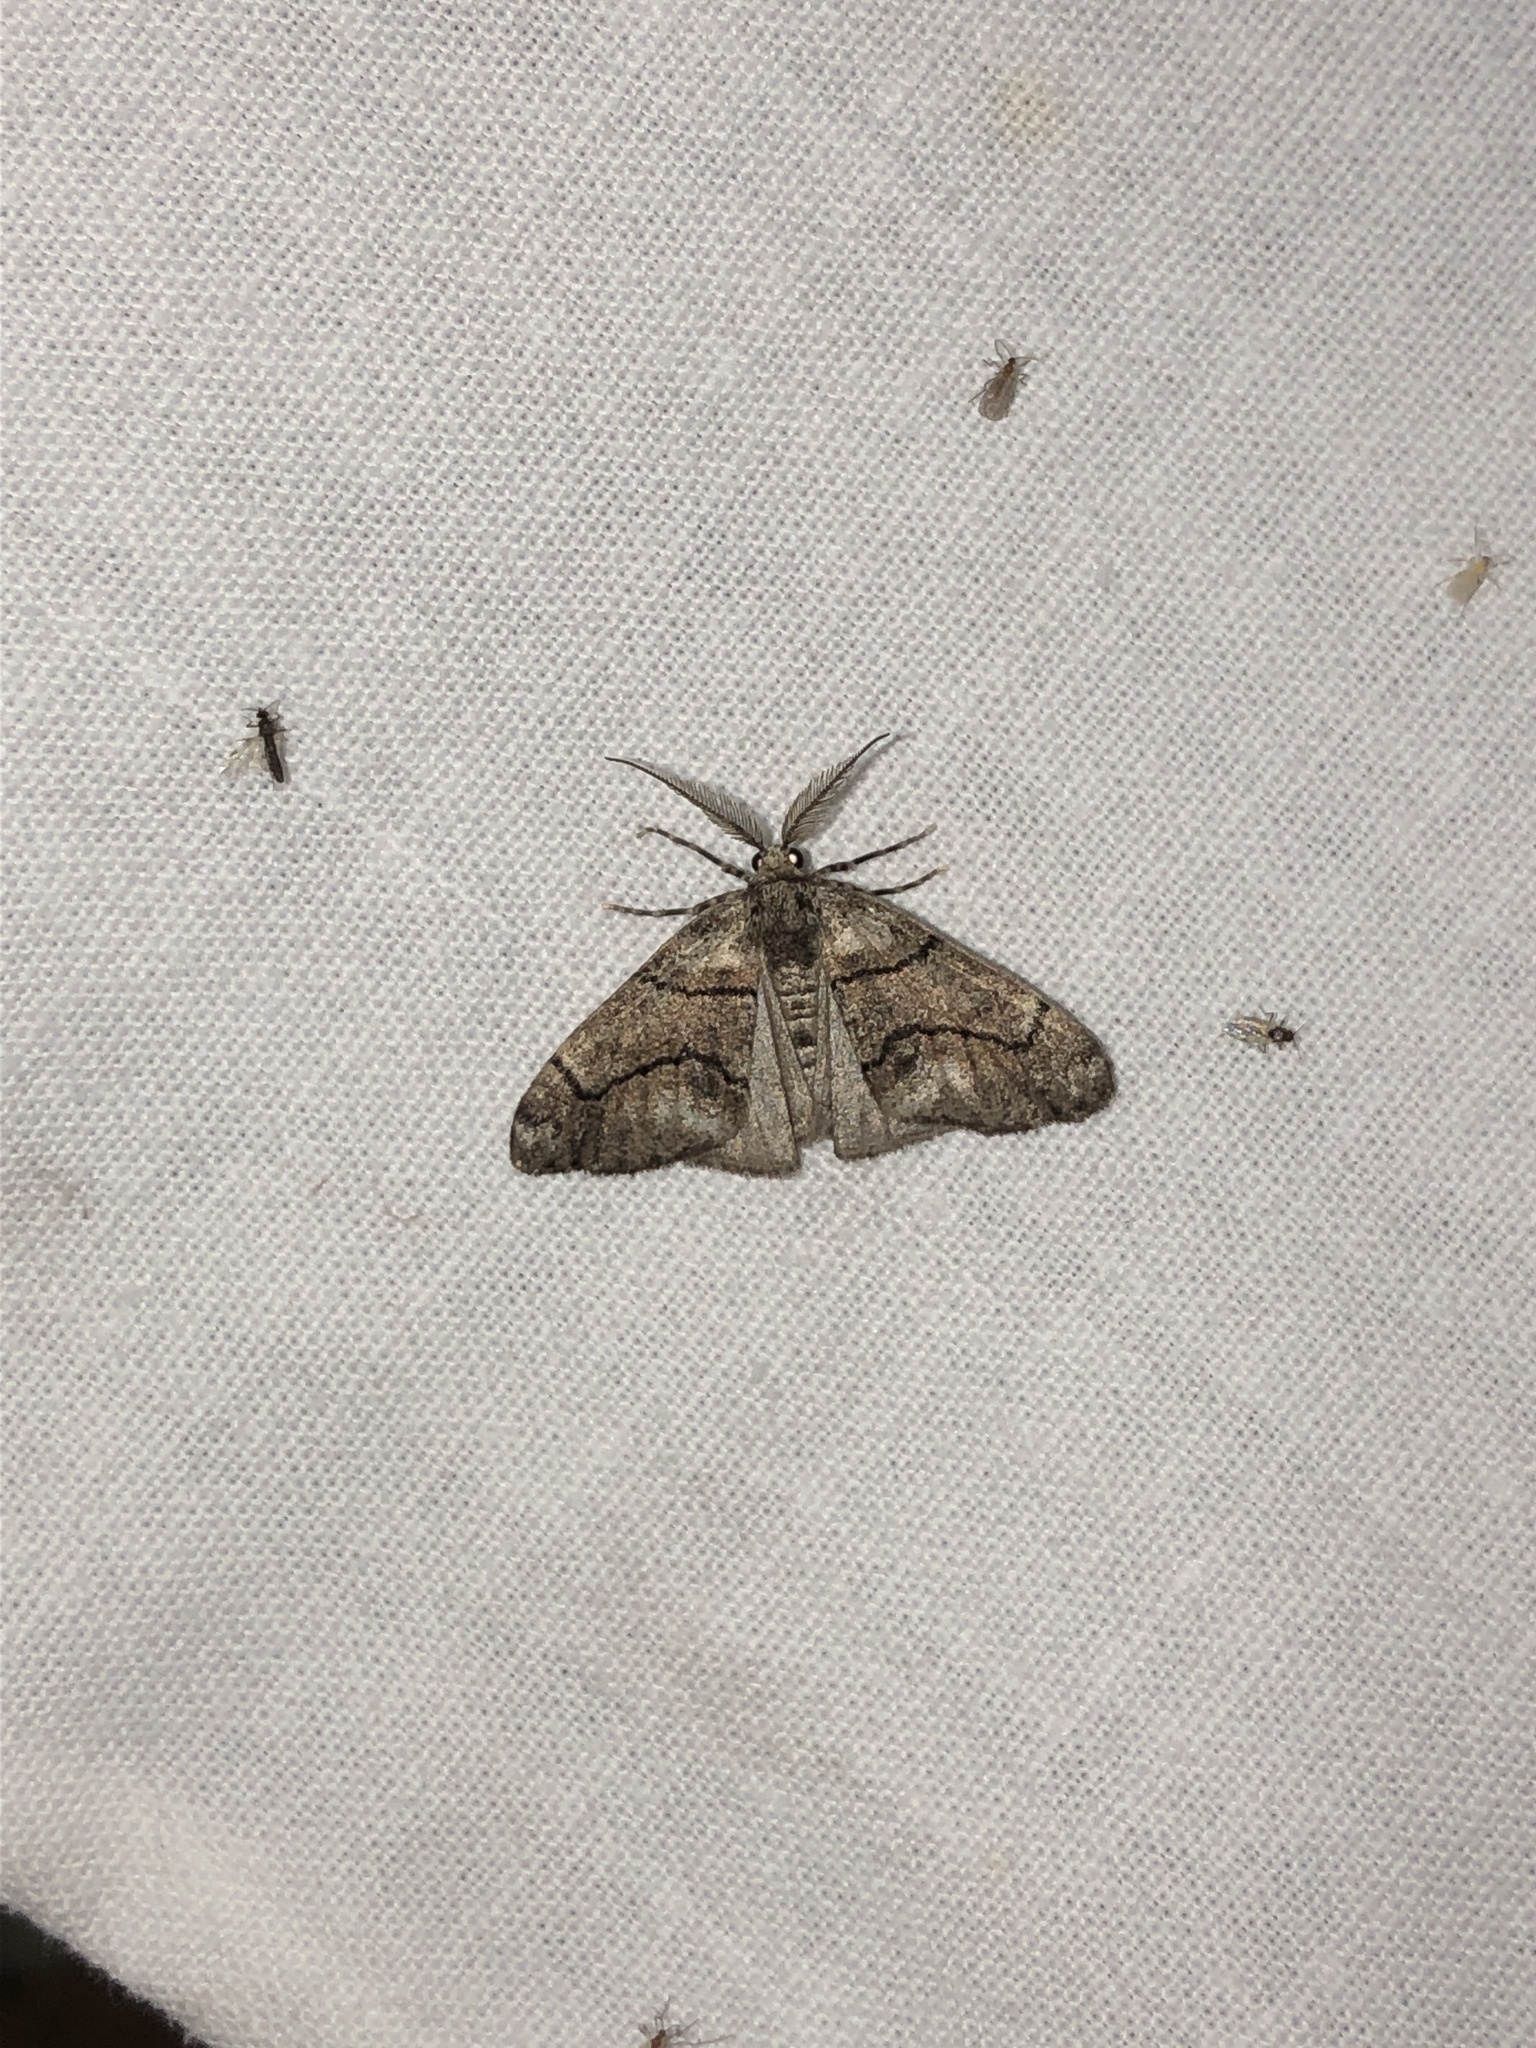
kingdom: Animalia
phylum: Arthropoda
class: Insecta
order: Lepidoptera
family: Geometridae
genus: Gabriola
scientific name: Gabriola dyari
